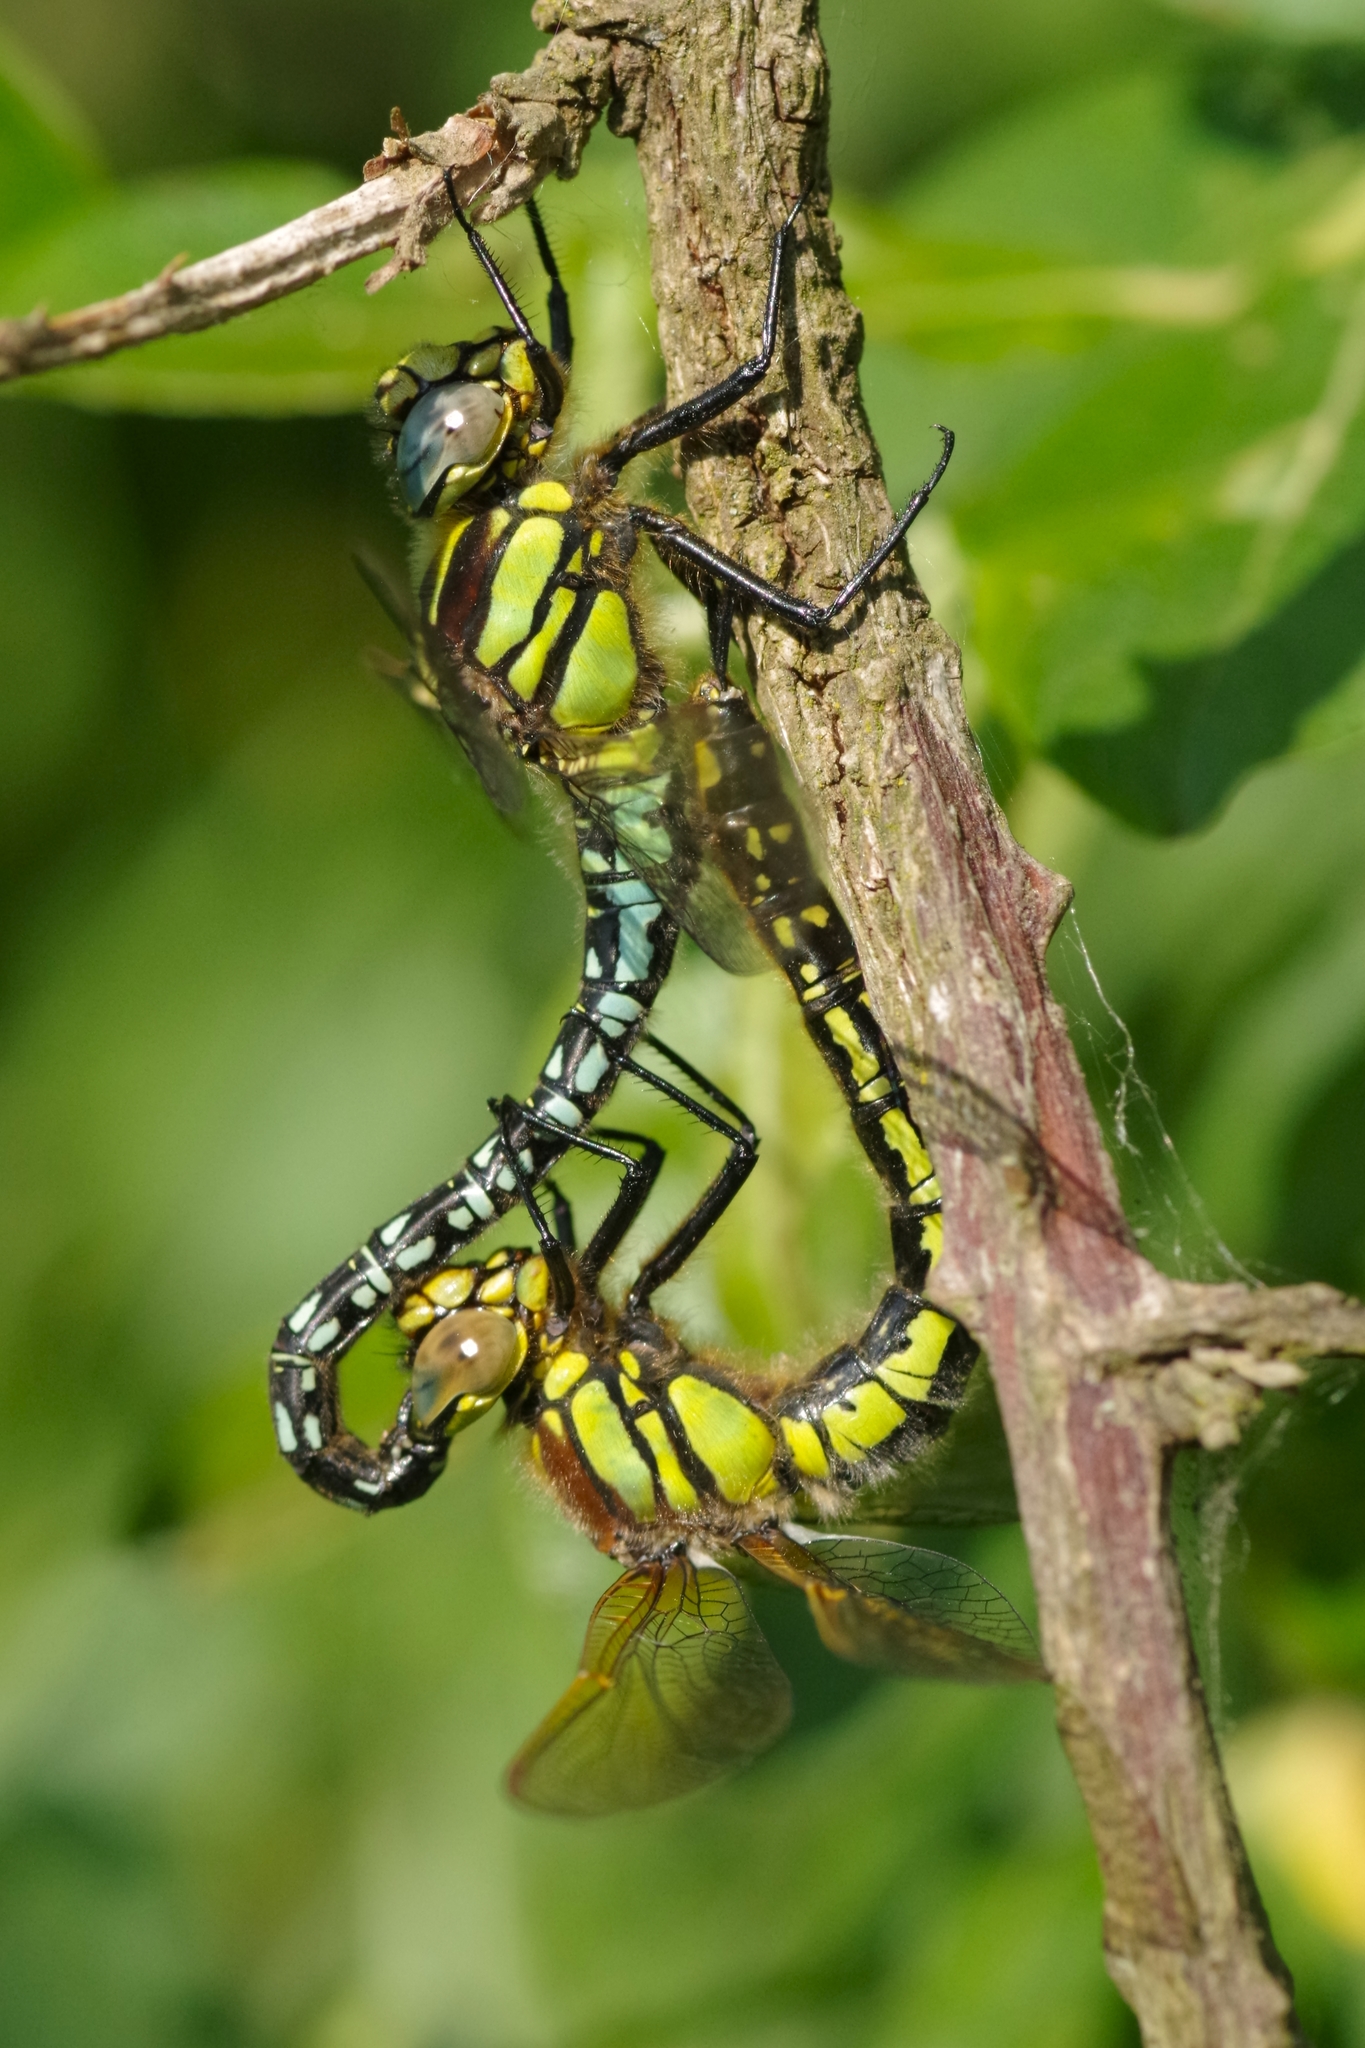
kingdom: Animalia
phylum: Arthropoda
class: Insecta
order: Odonata
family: Aeshnidae
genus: Brachytron
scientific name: Brachytron pratense
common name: Hairy hawker
